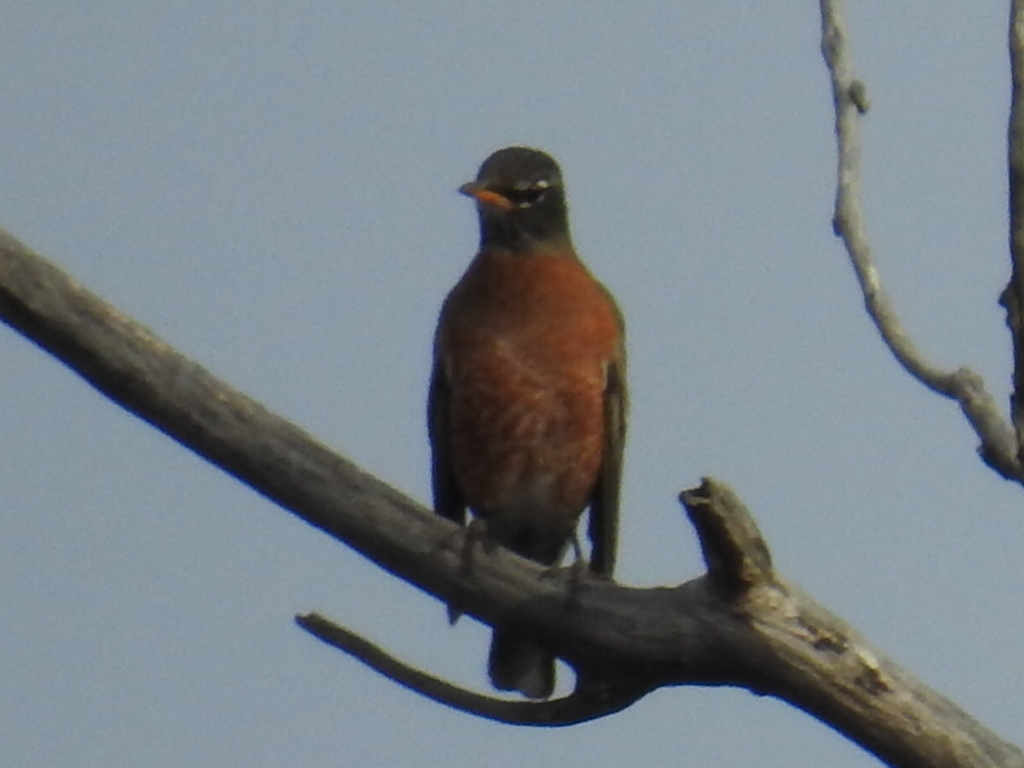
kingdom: Animalia
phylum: Chordata
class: Aves
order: Passeriformes
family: Turdidae
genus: Turdus
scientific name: Turdus migratorius
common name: American robin
